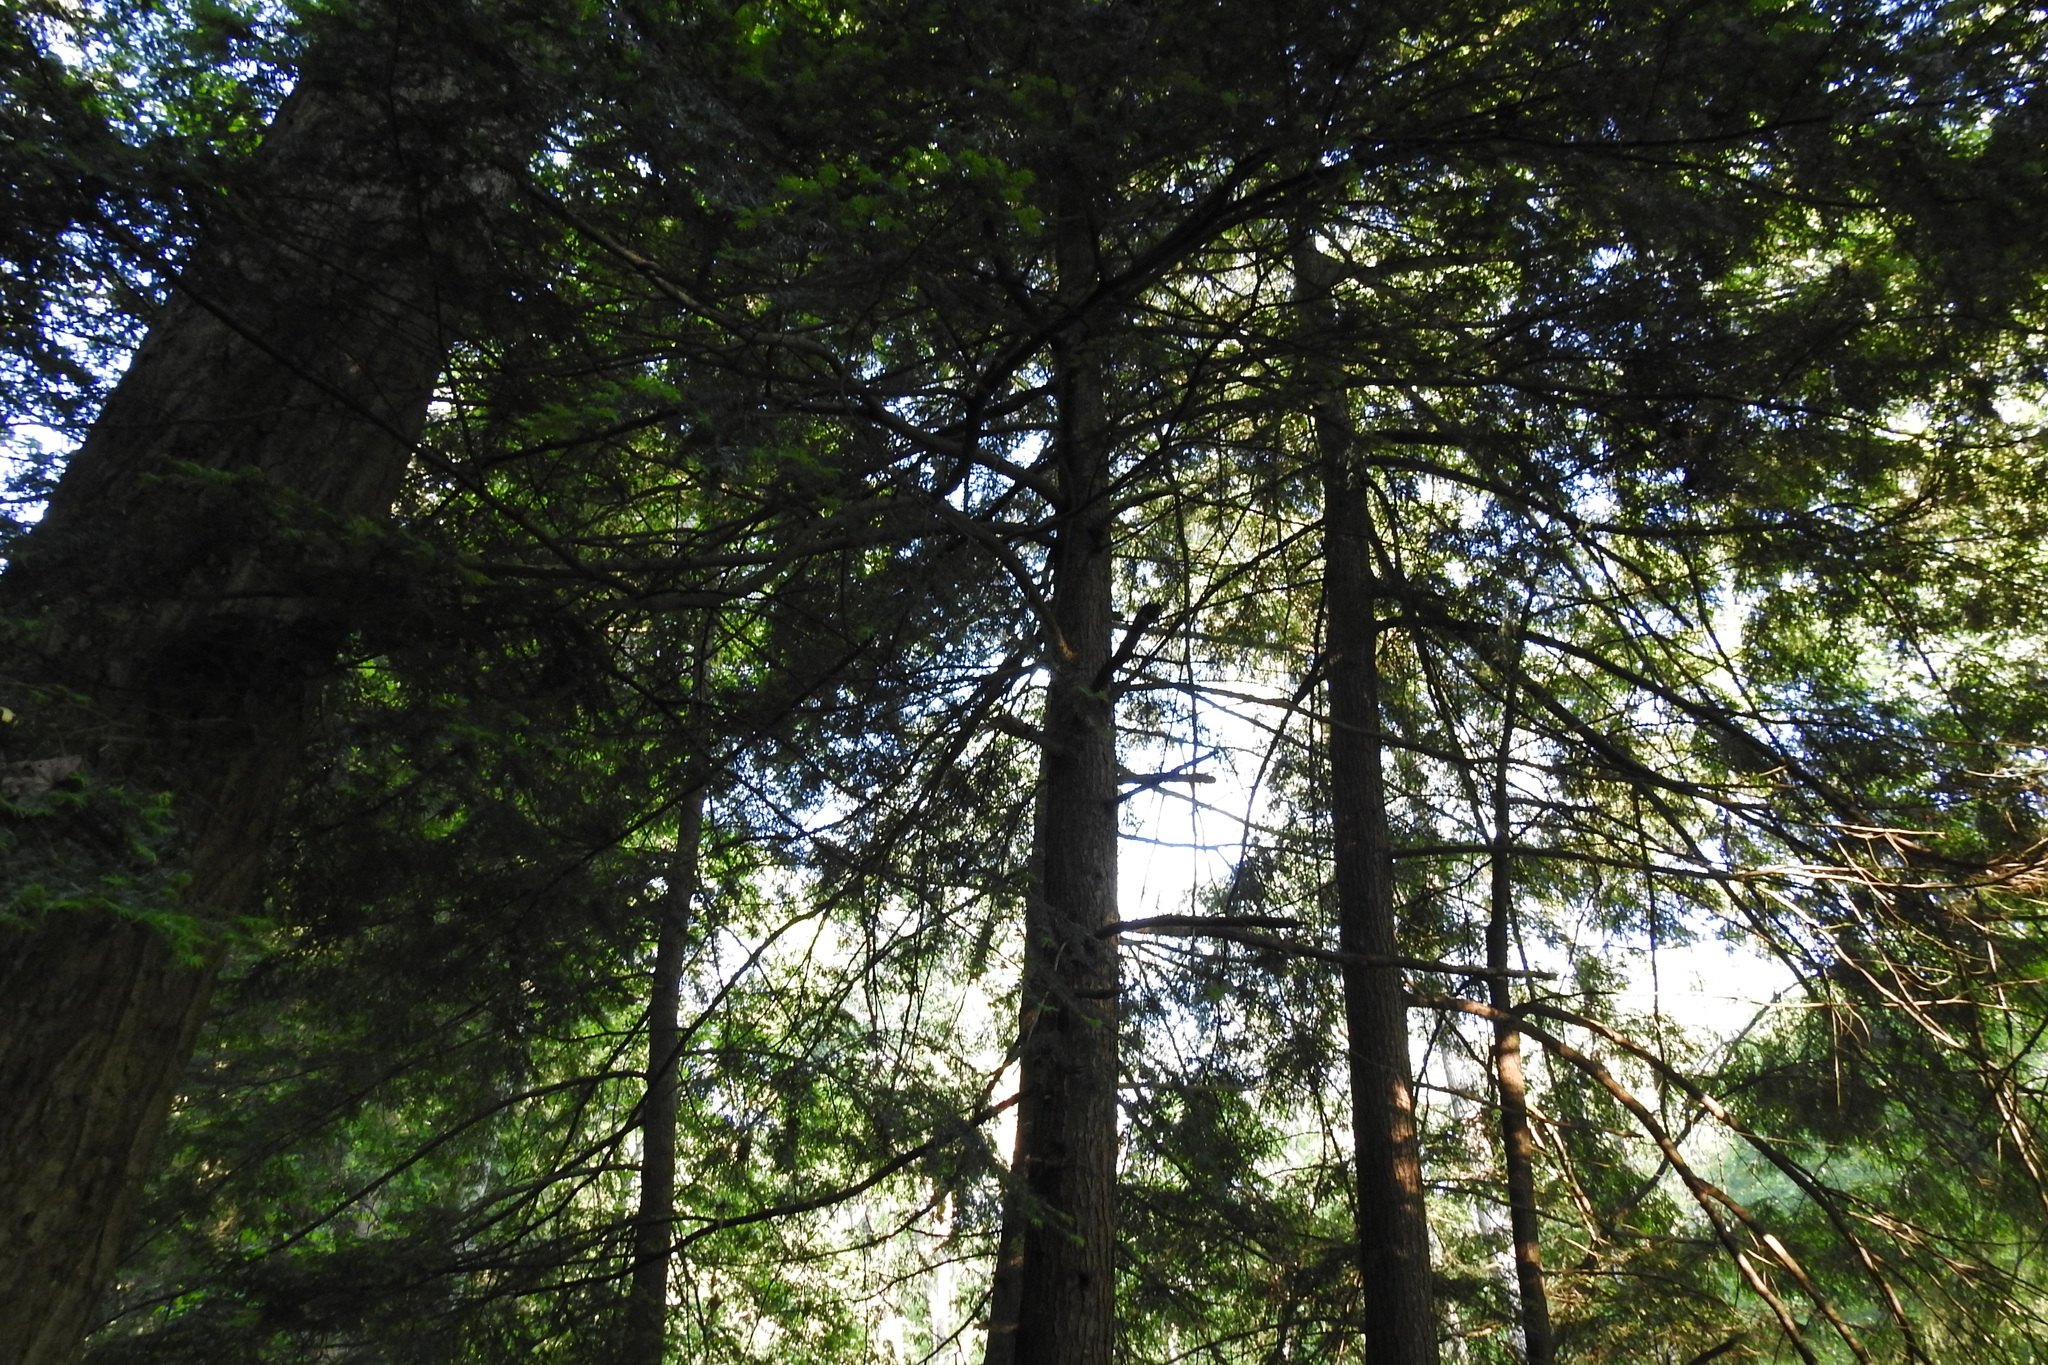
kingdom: Plantae
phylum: Tracheophyta
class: Pinopsida
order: Pinales
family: Pinaceae
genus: Tsuga
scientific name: Tsuga canadensis
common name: Eastern hemlock
